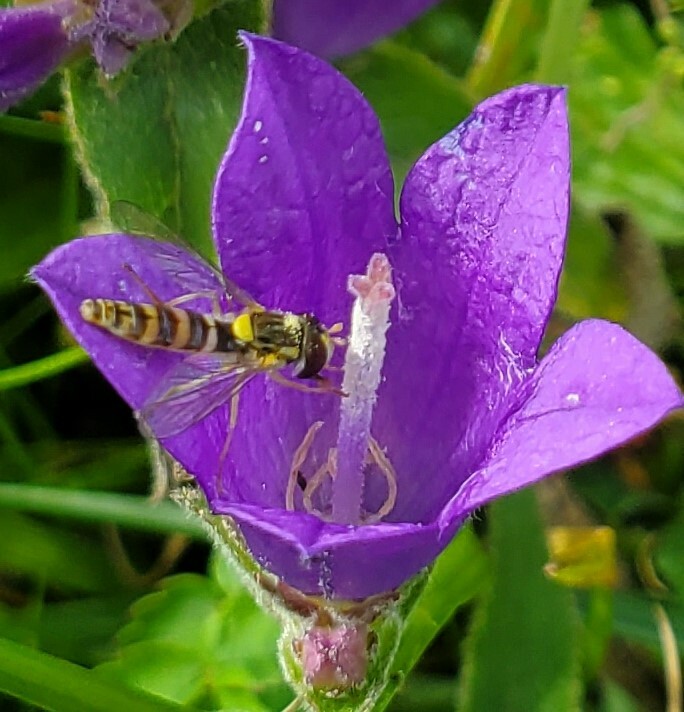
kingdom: Animalia
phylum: Arthropoda
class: Insecta
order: Diptera
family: Syrphidae
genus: Sphaerophoria
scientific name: Sphaerophoria
